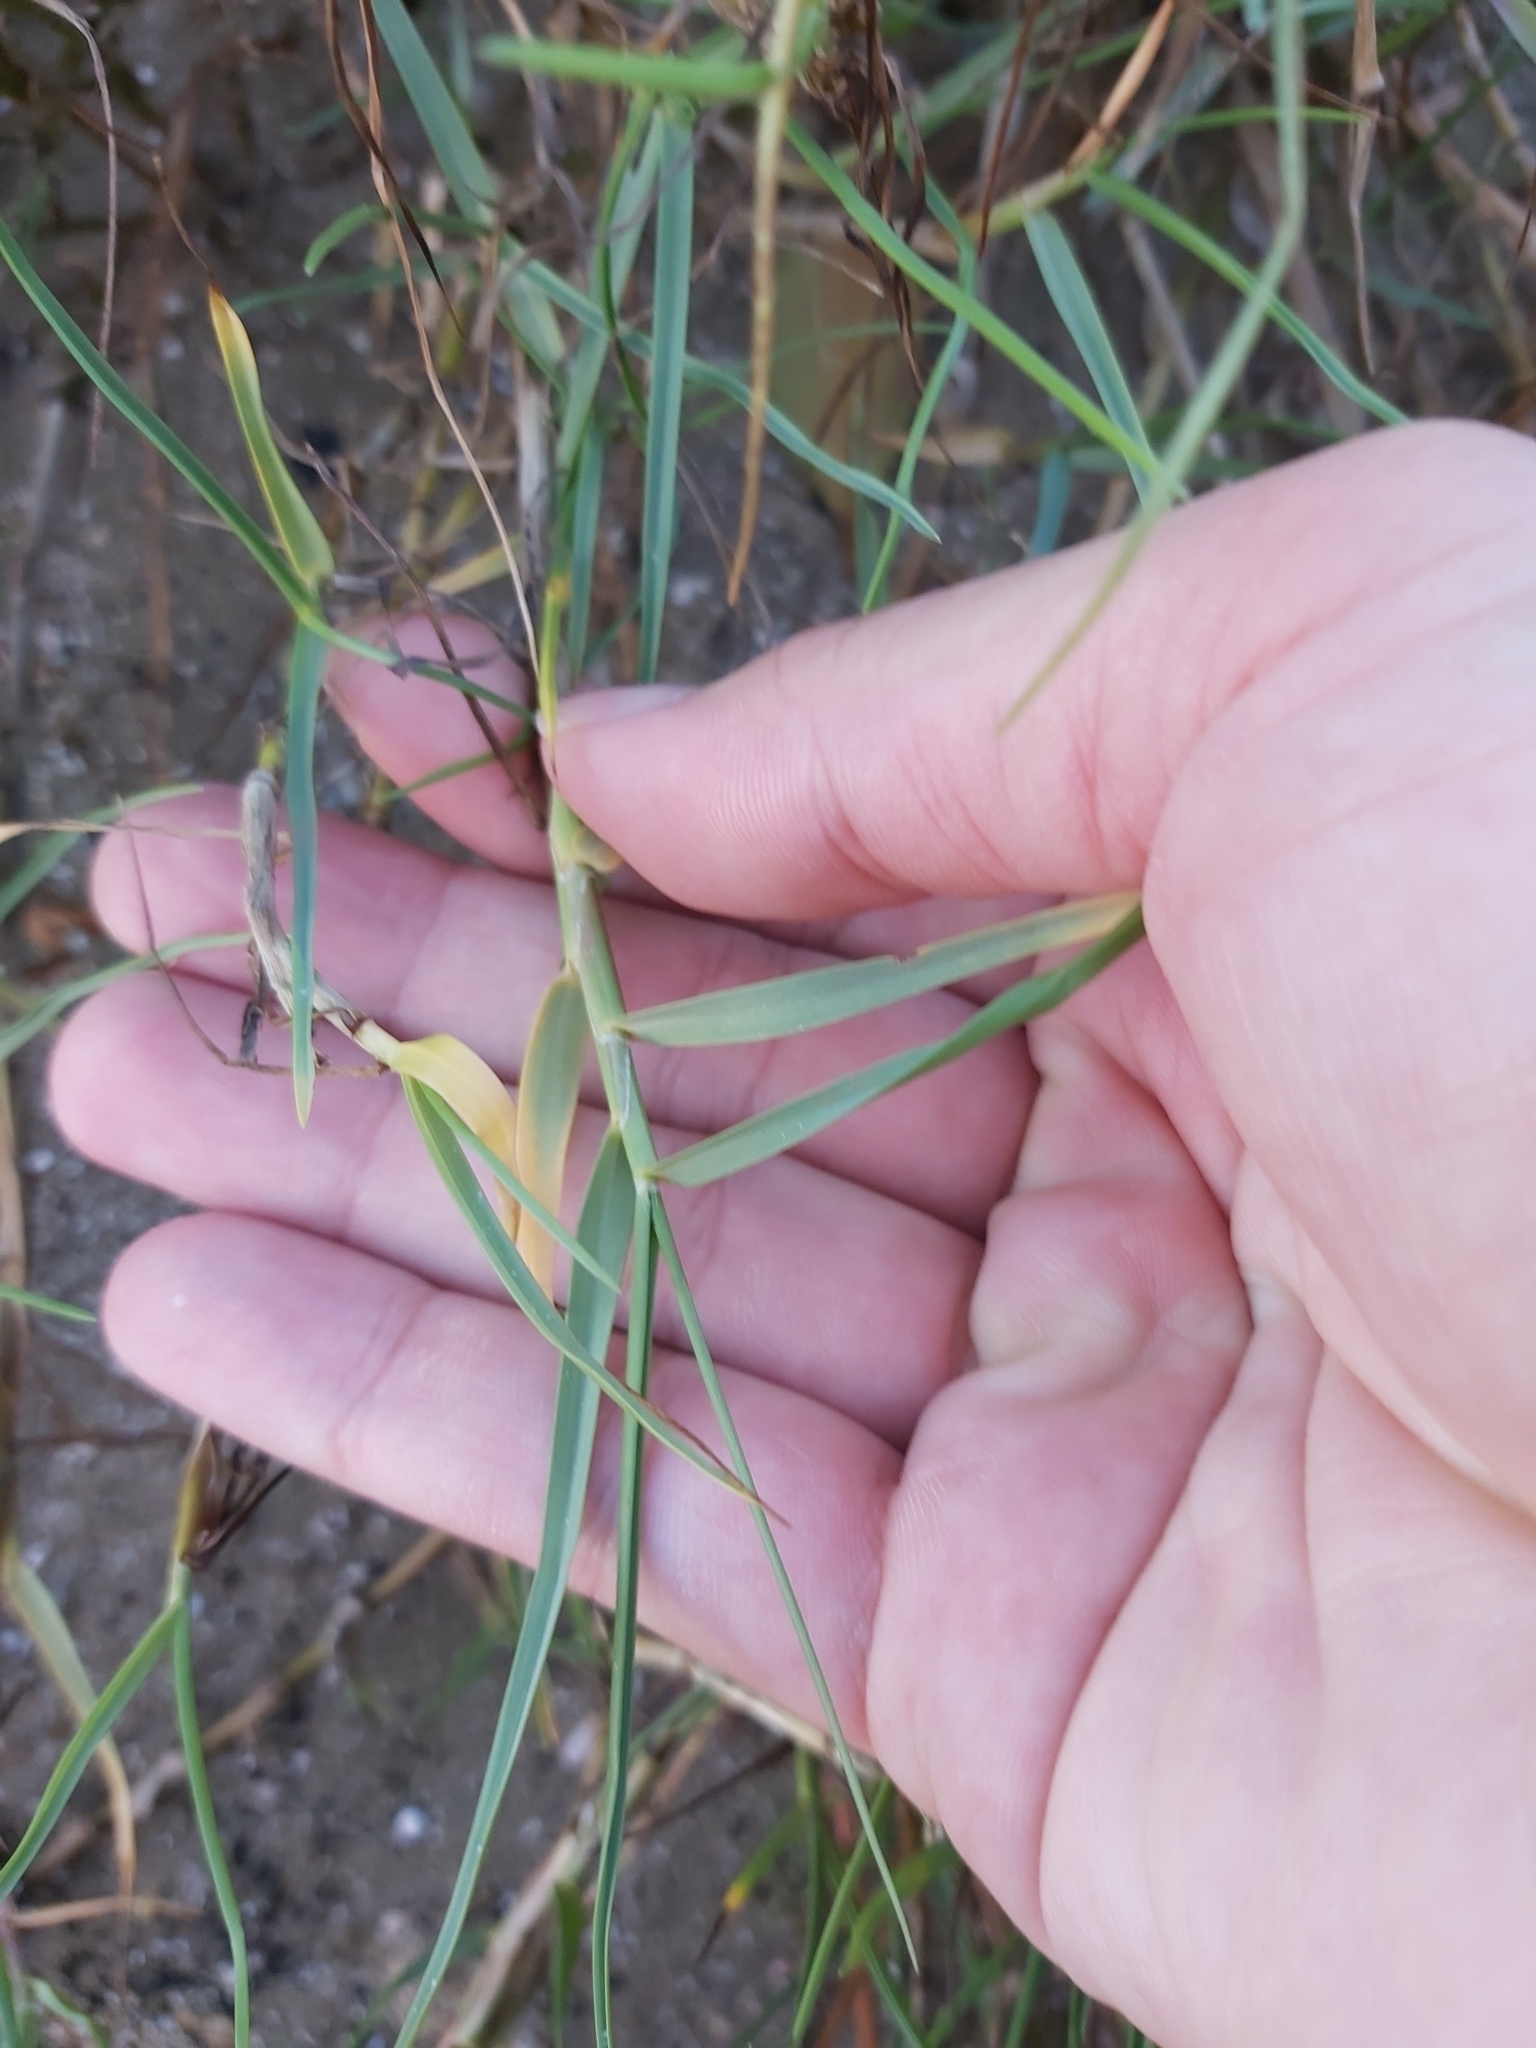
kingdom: Plantae
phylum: Tracheophyta
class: Liliopsida
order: Poales
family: Poaceae
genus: Sporobolus
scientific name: Sporobolus virginicus
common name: Beach dropseed
